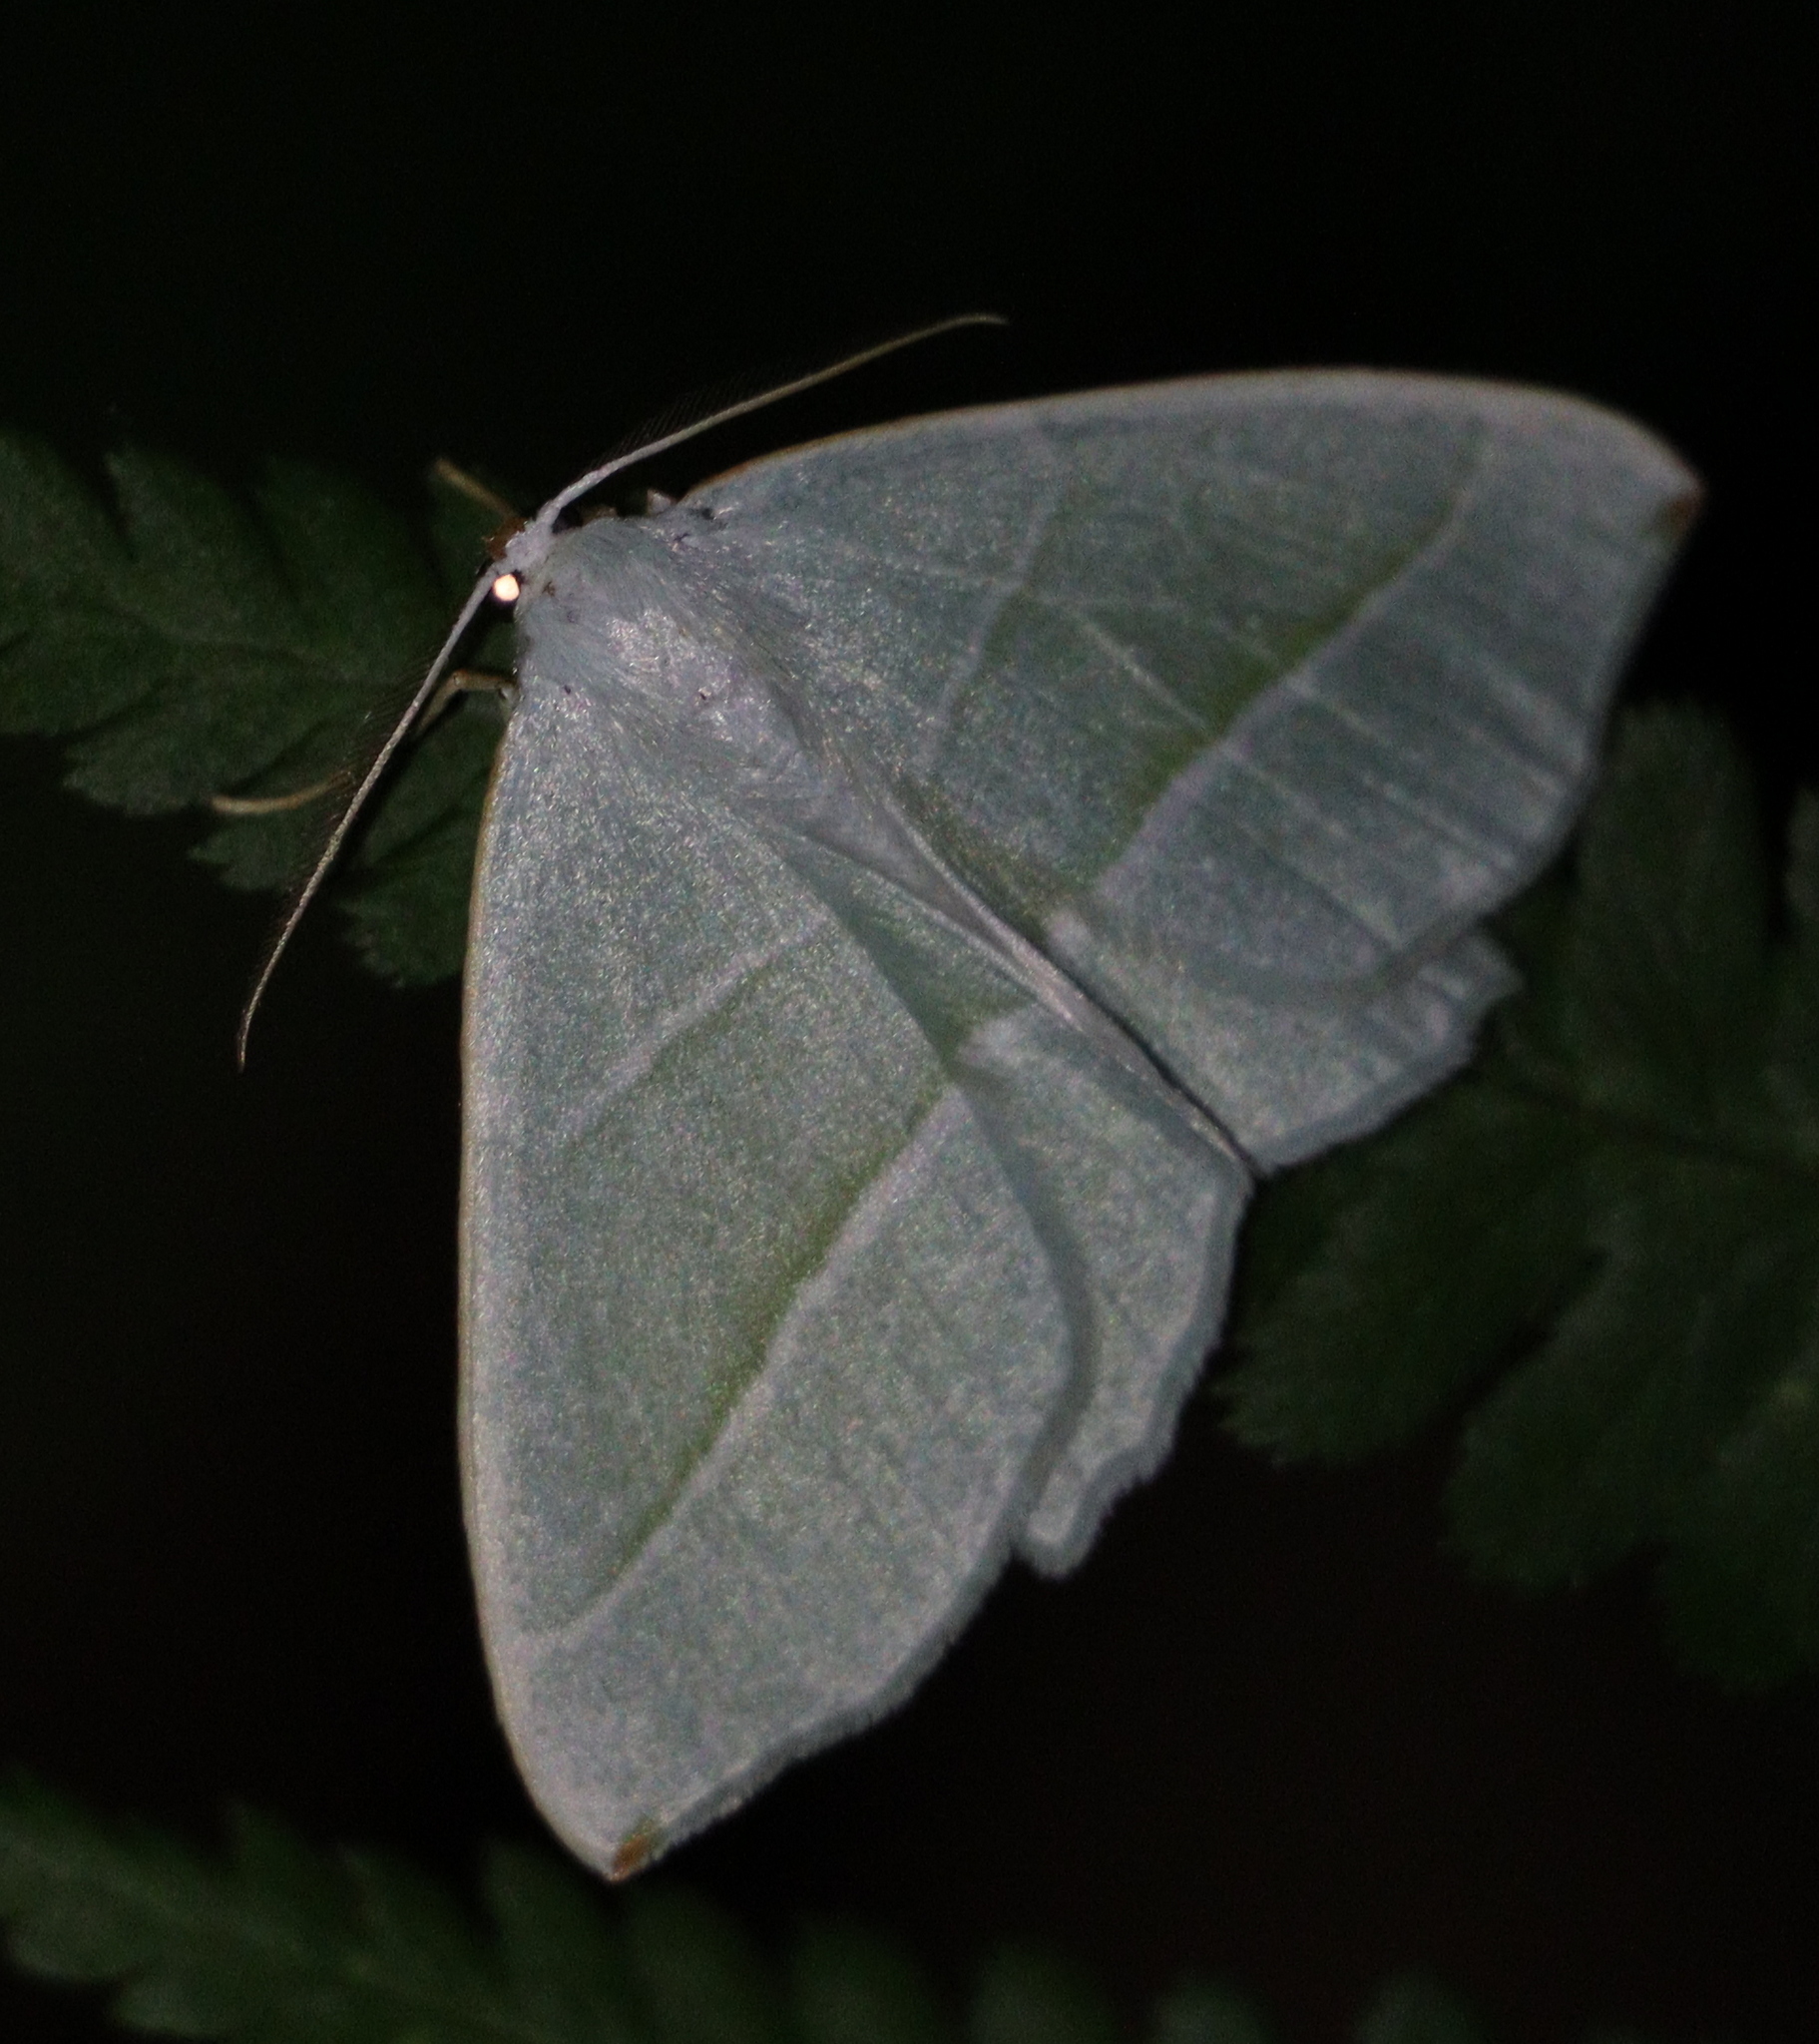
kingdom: Animalia
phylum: Arthropoda
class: Insecta
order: Lepidoptera
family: Geometridae
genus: Campaea
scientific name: Campaea margaritaria
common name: Light emerald
